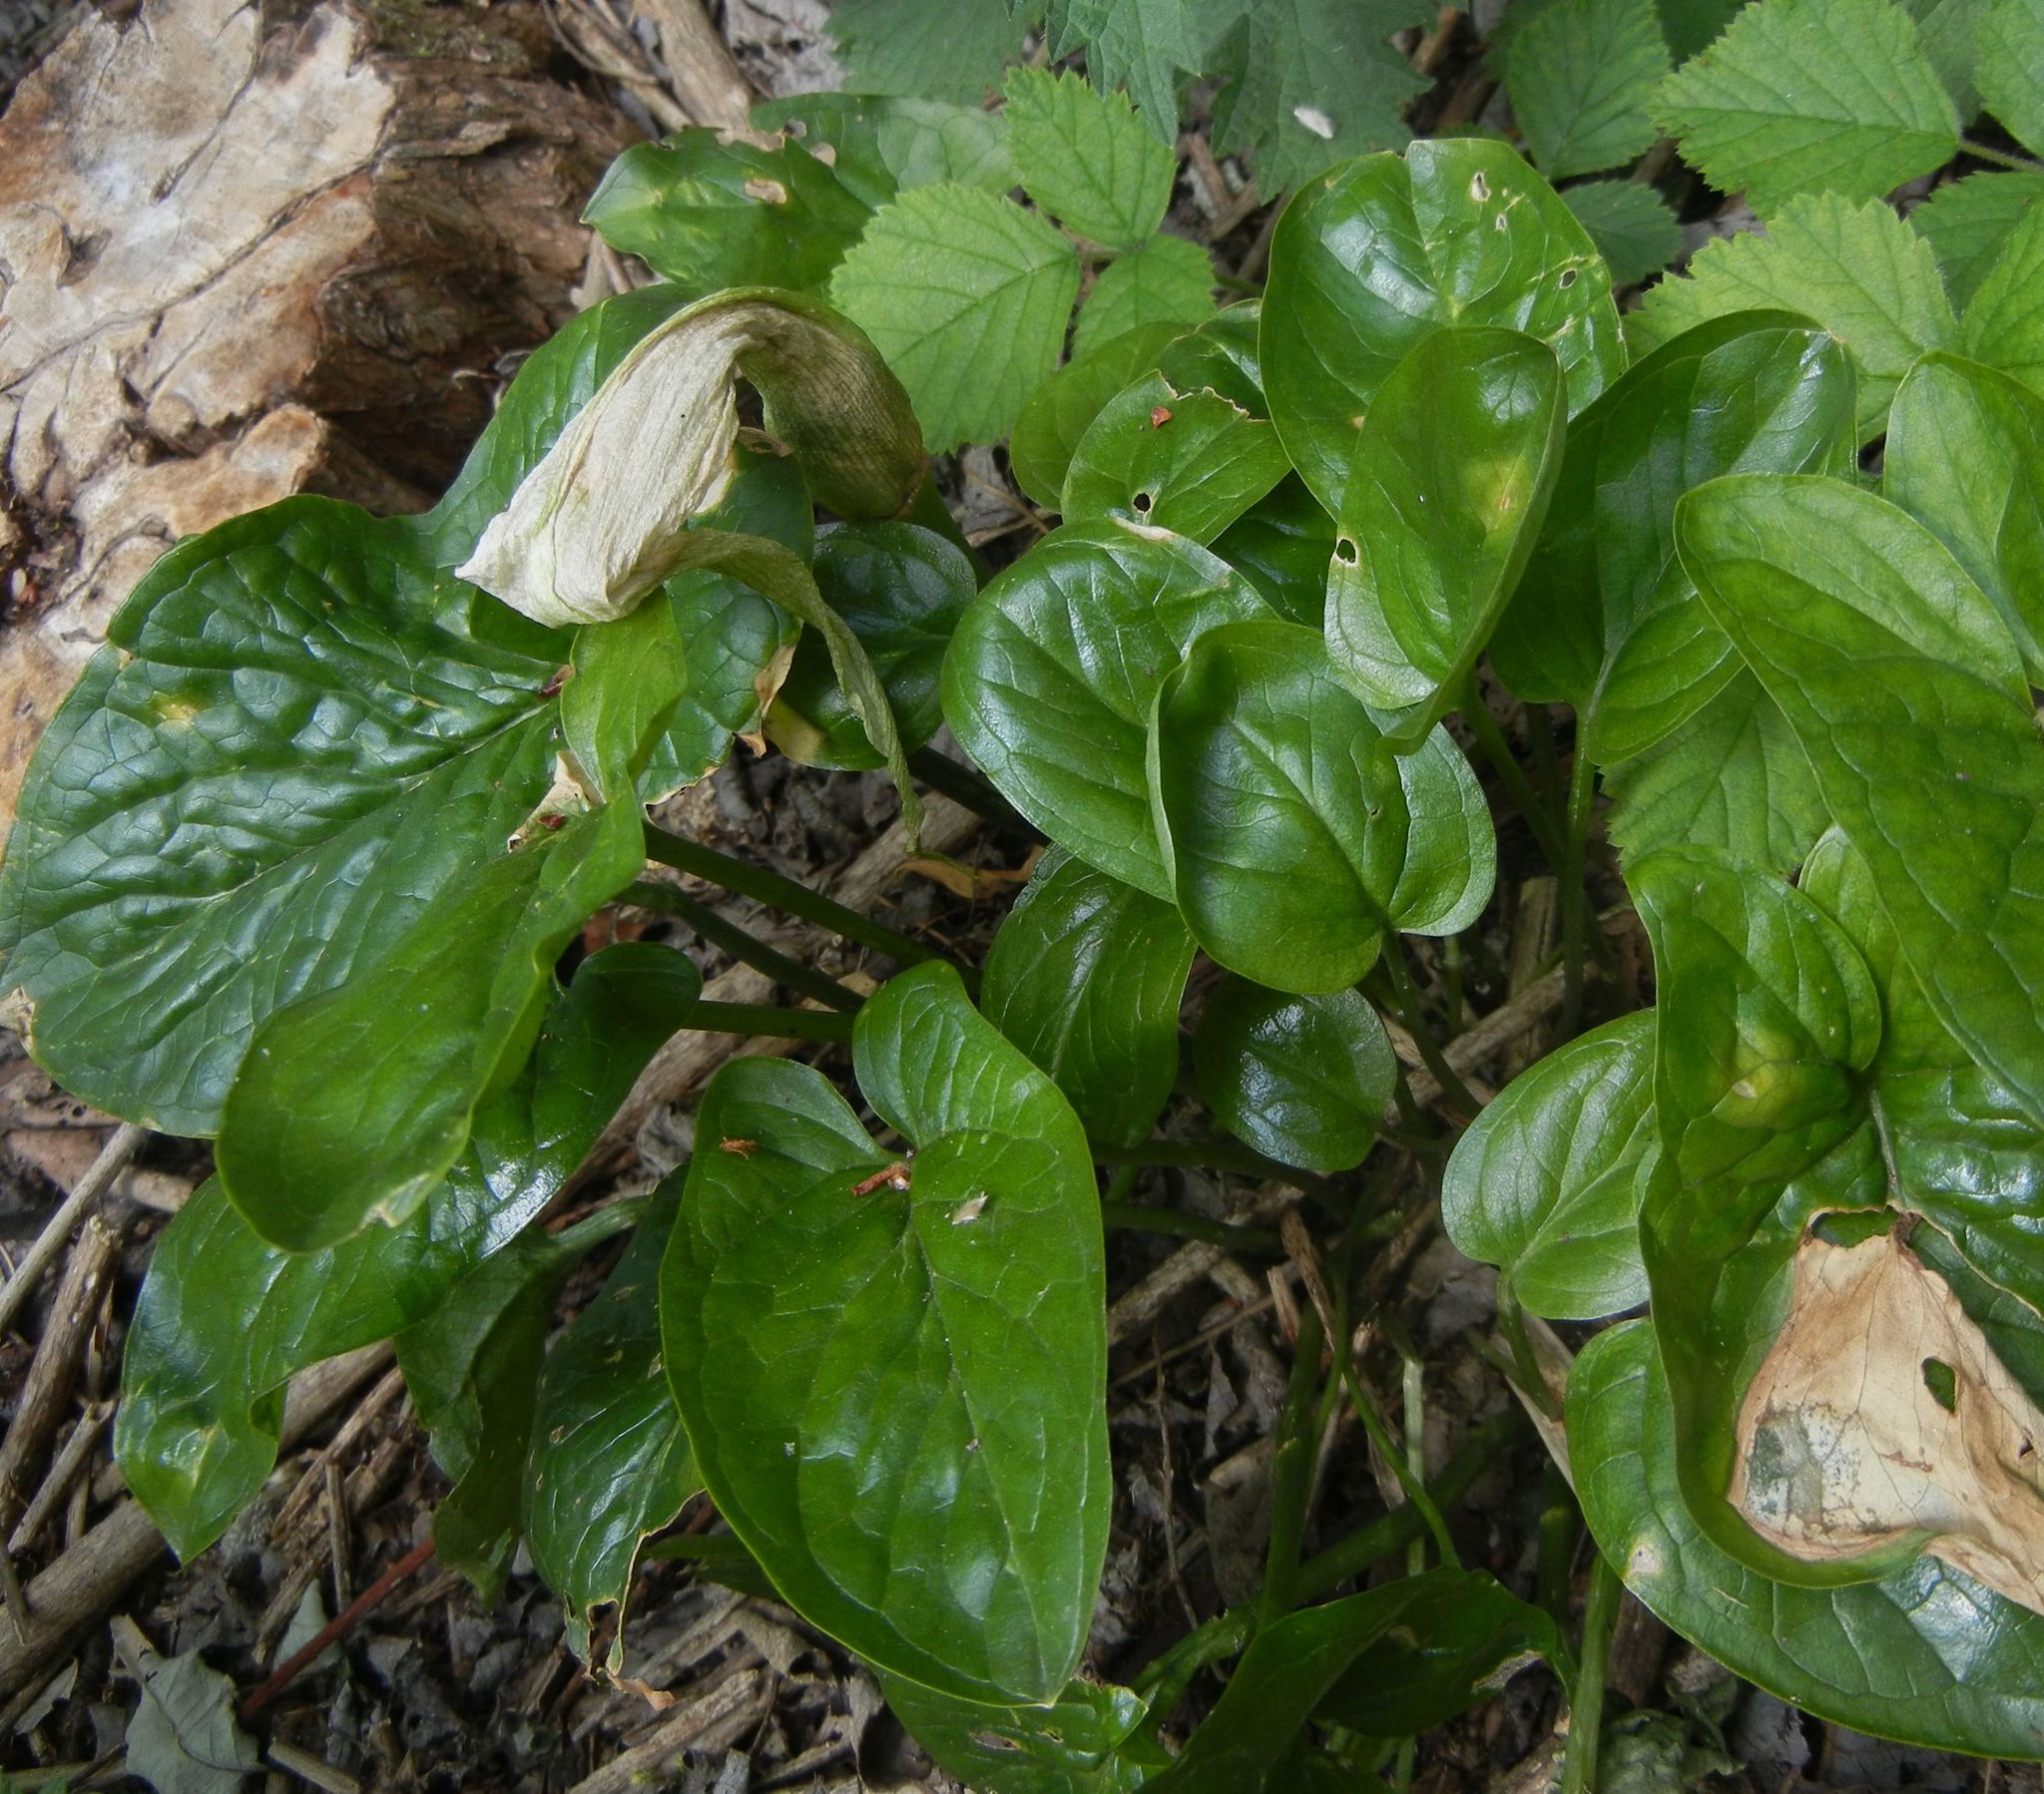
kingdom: Plantae
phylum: Tracheophyta
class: Liliopsida
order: Alismatales
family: Araceae
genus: Arum
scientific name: Arum maculatum
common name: Lords-and-ladies
